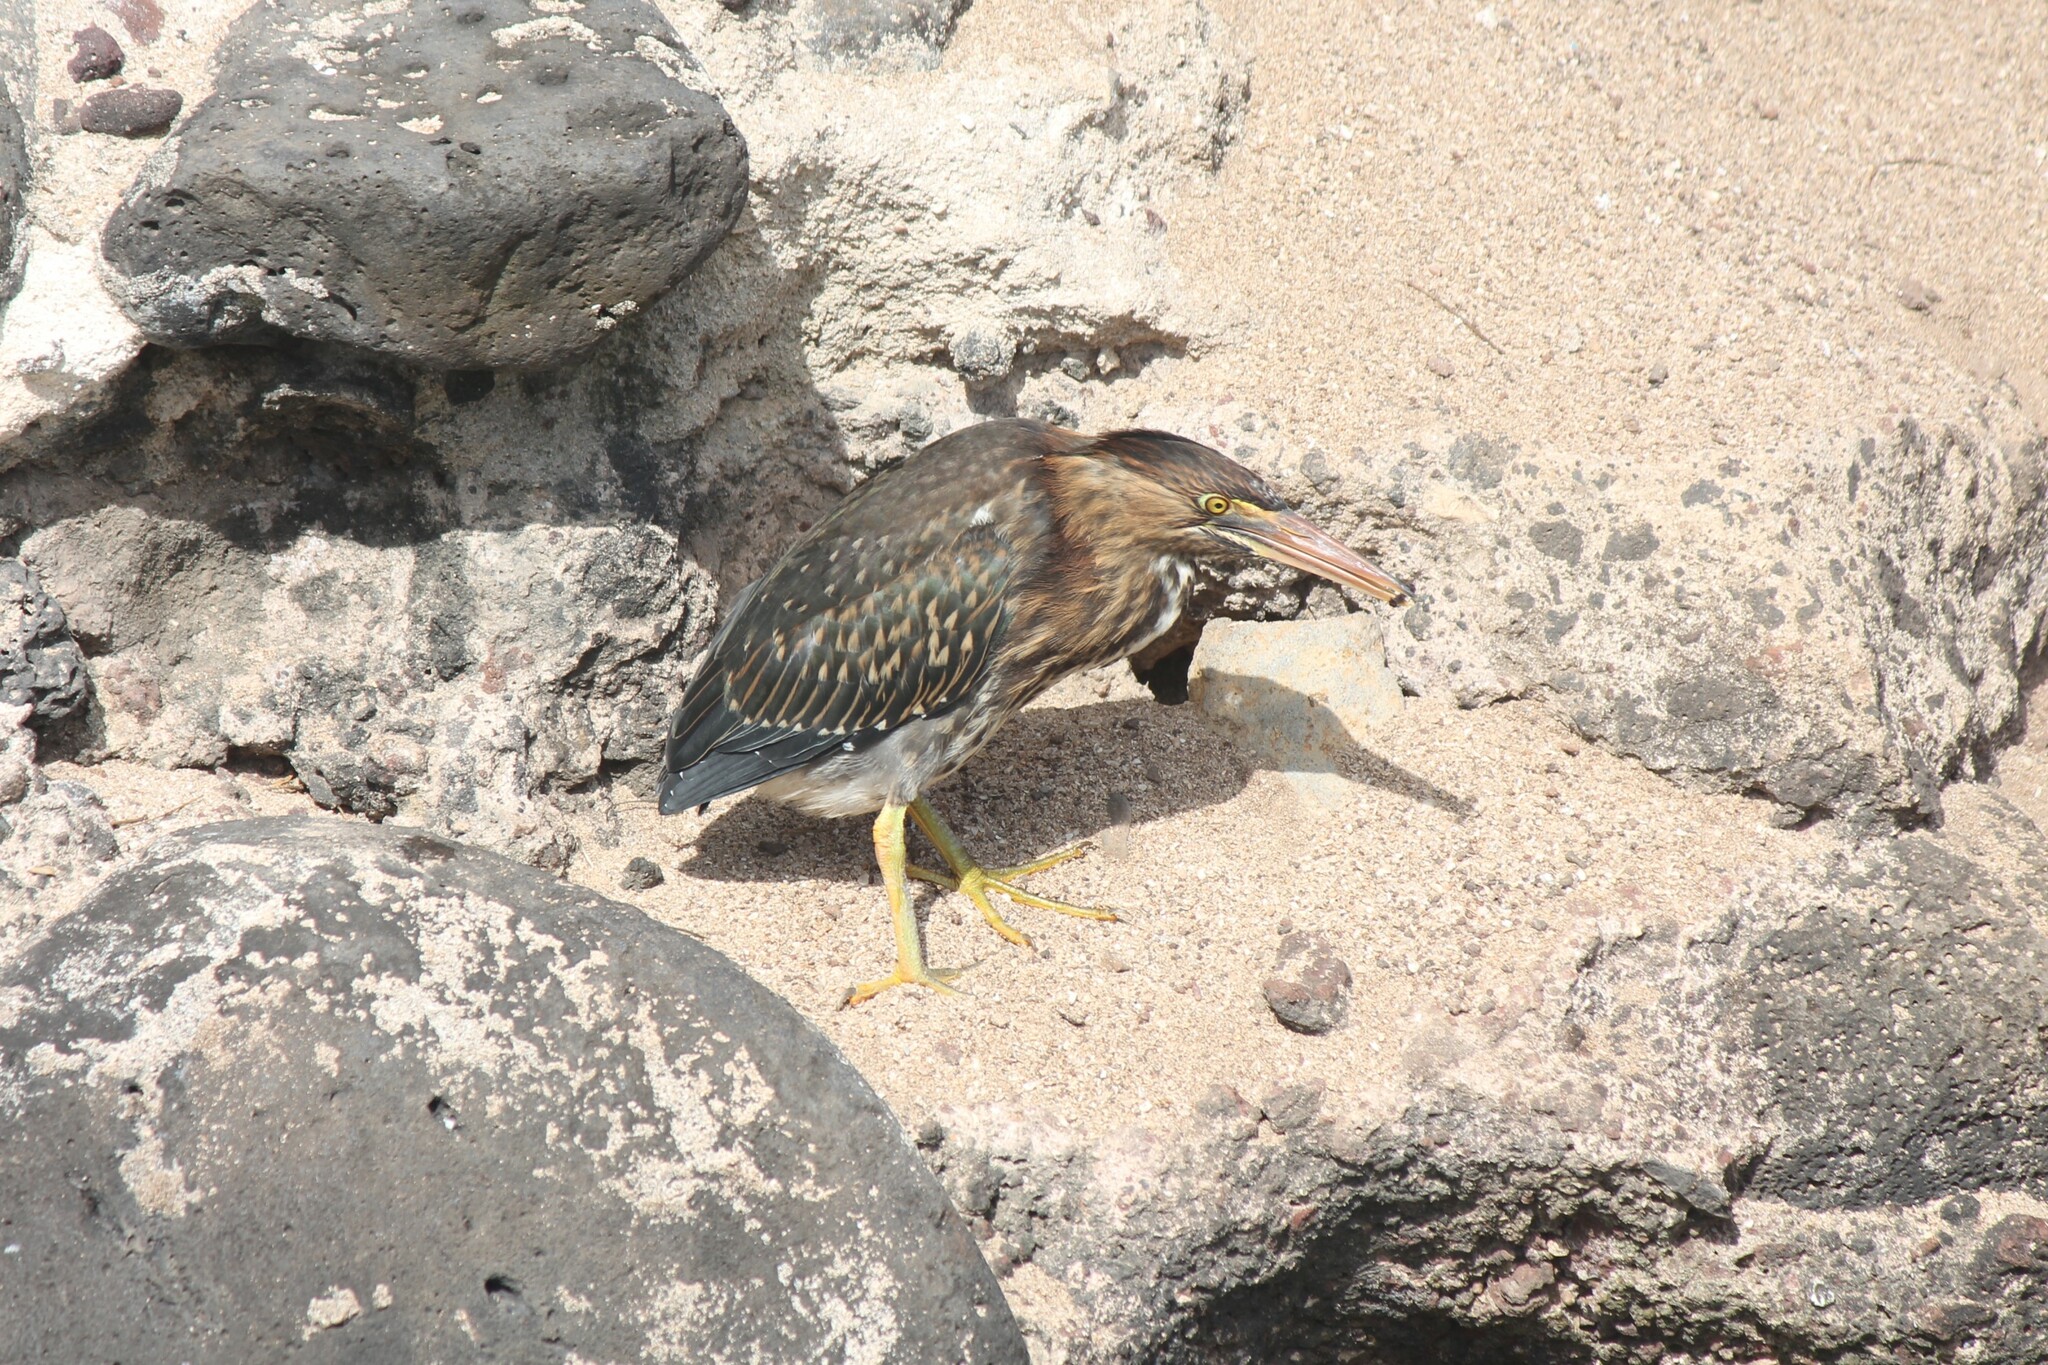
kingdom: Animalia
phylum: Chordata
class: Aves
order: Pelecaniformes
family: Ardeidae
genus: Butorides
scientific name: Butorides virescens
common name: Green heron
